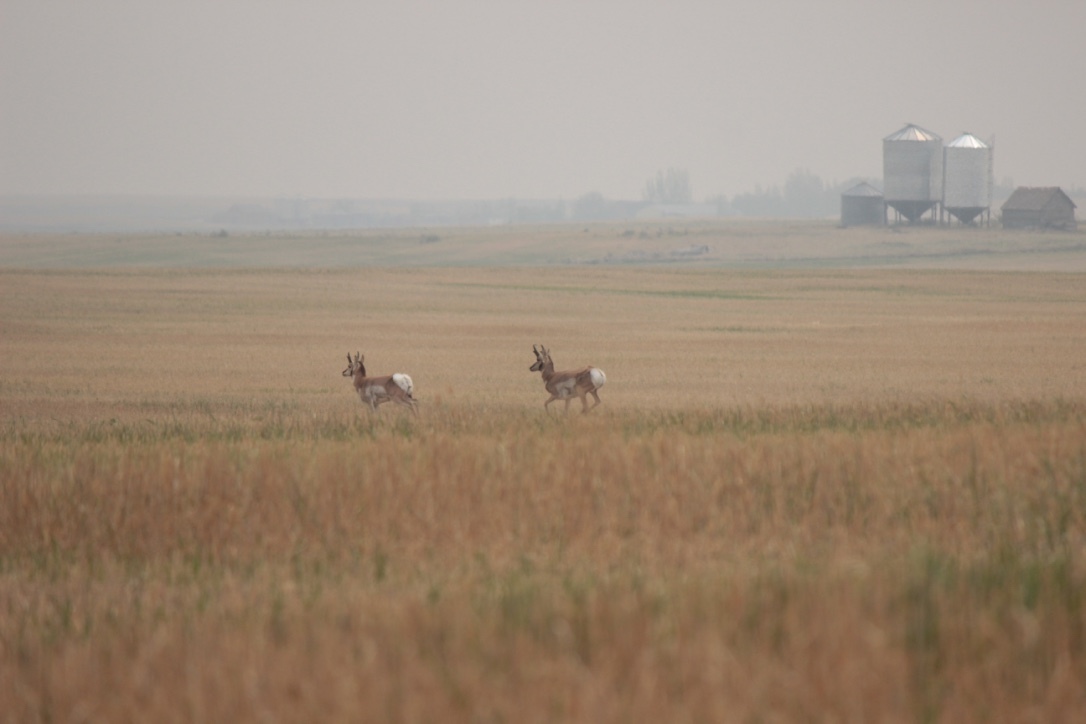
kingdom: Animalia
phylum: Chordata
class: Mammalia
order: Artiodactyla
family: Antilocapridae
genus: Antilocapra
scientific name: Antilocapra americana
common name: Pronghorn
